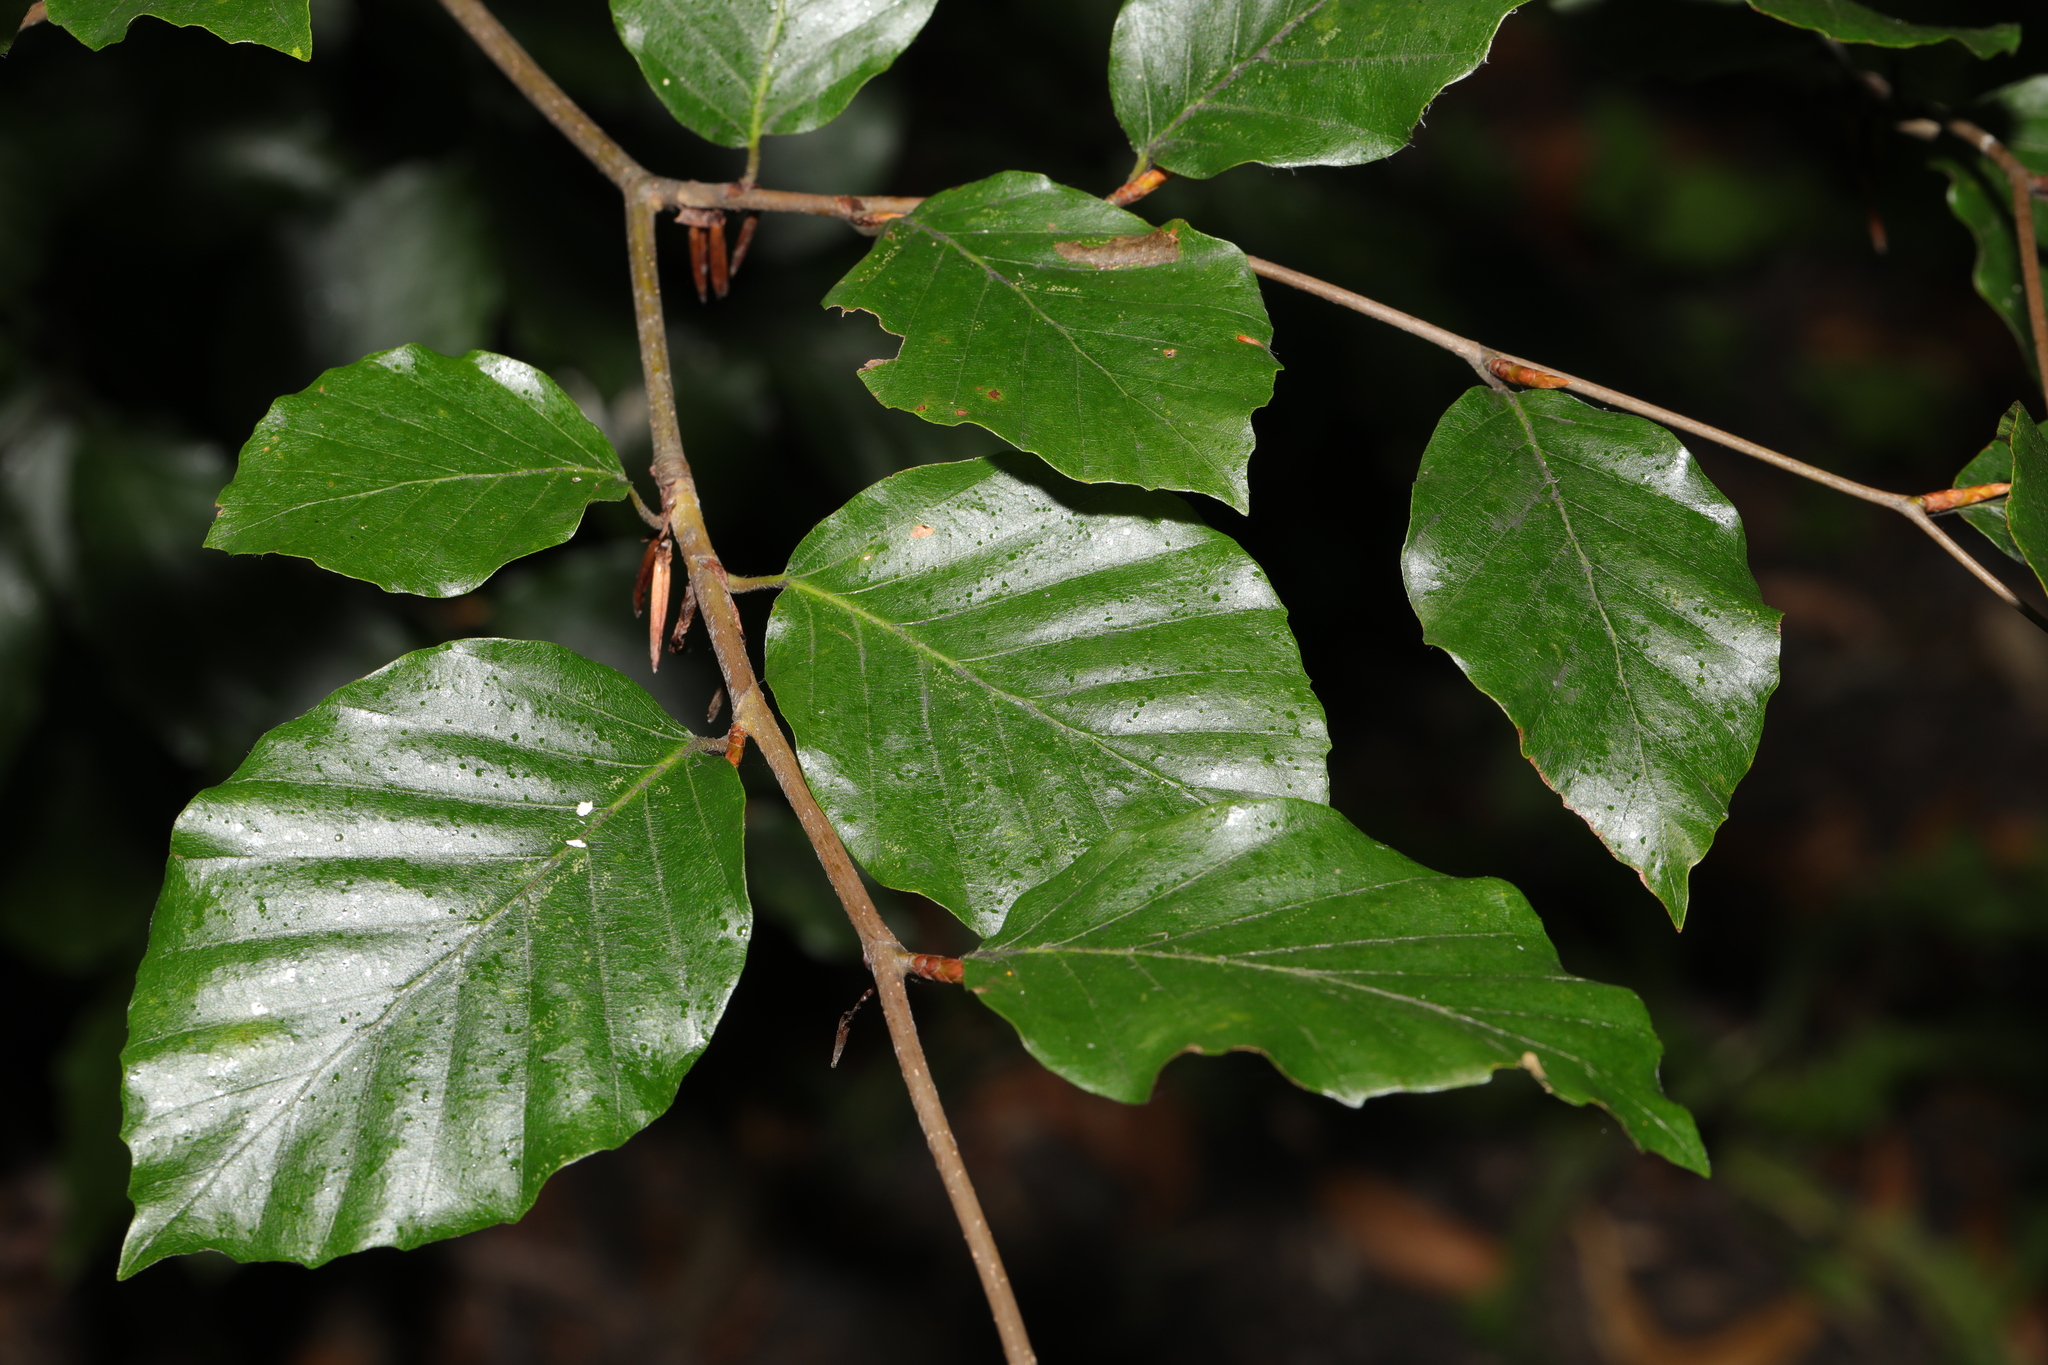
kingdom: Plantae
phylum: Tracheophyta
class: Magnoliopsida
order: Fagales
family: Fagaceae
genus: Fagus
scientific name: Fagus sylvatica
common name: Beech
